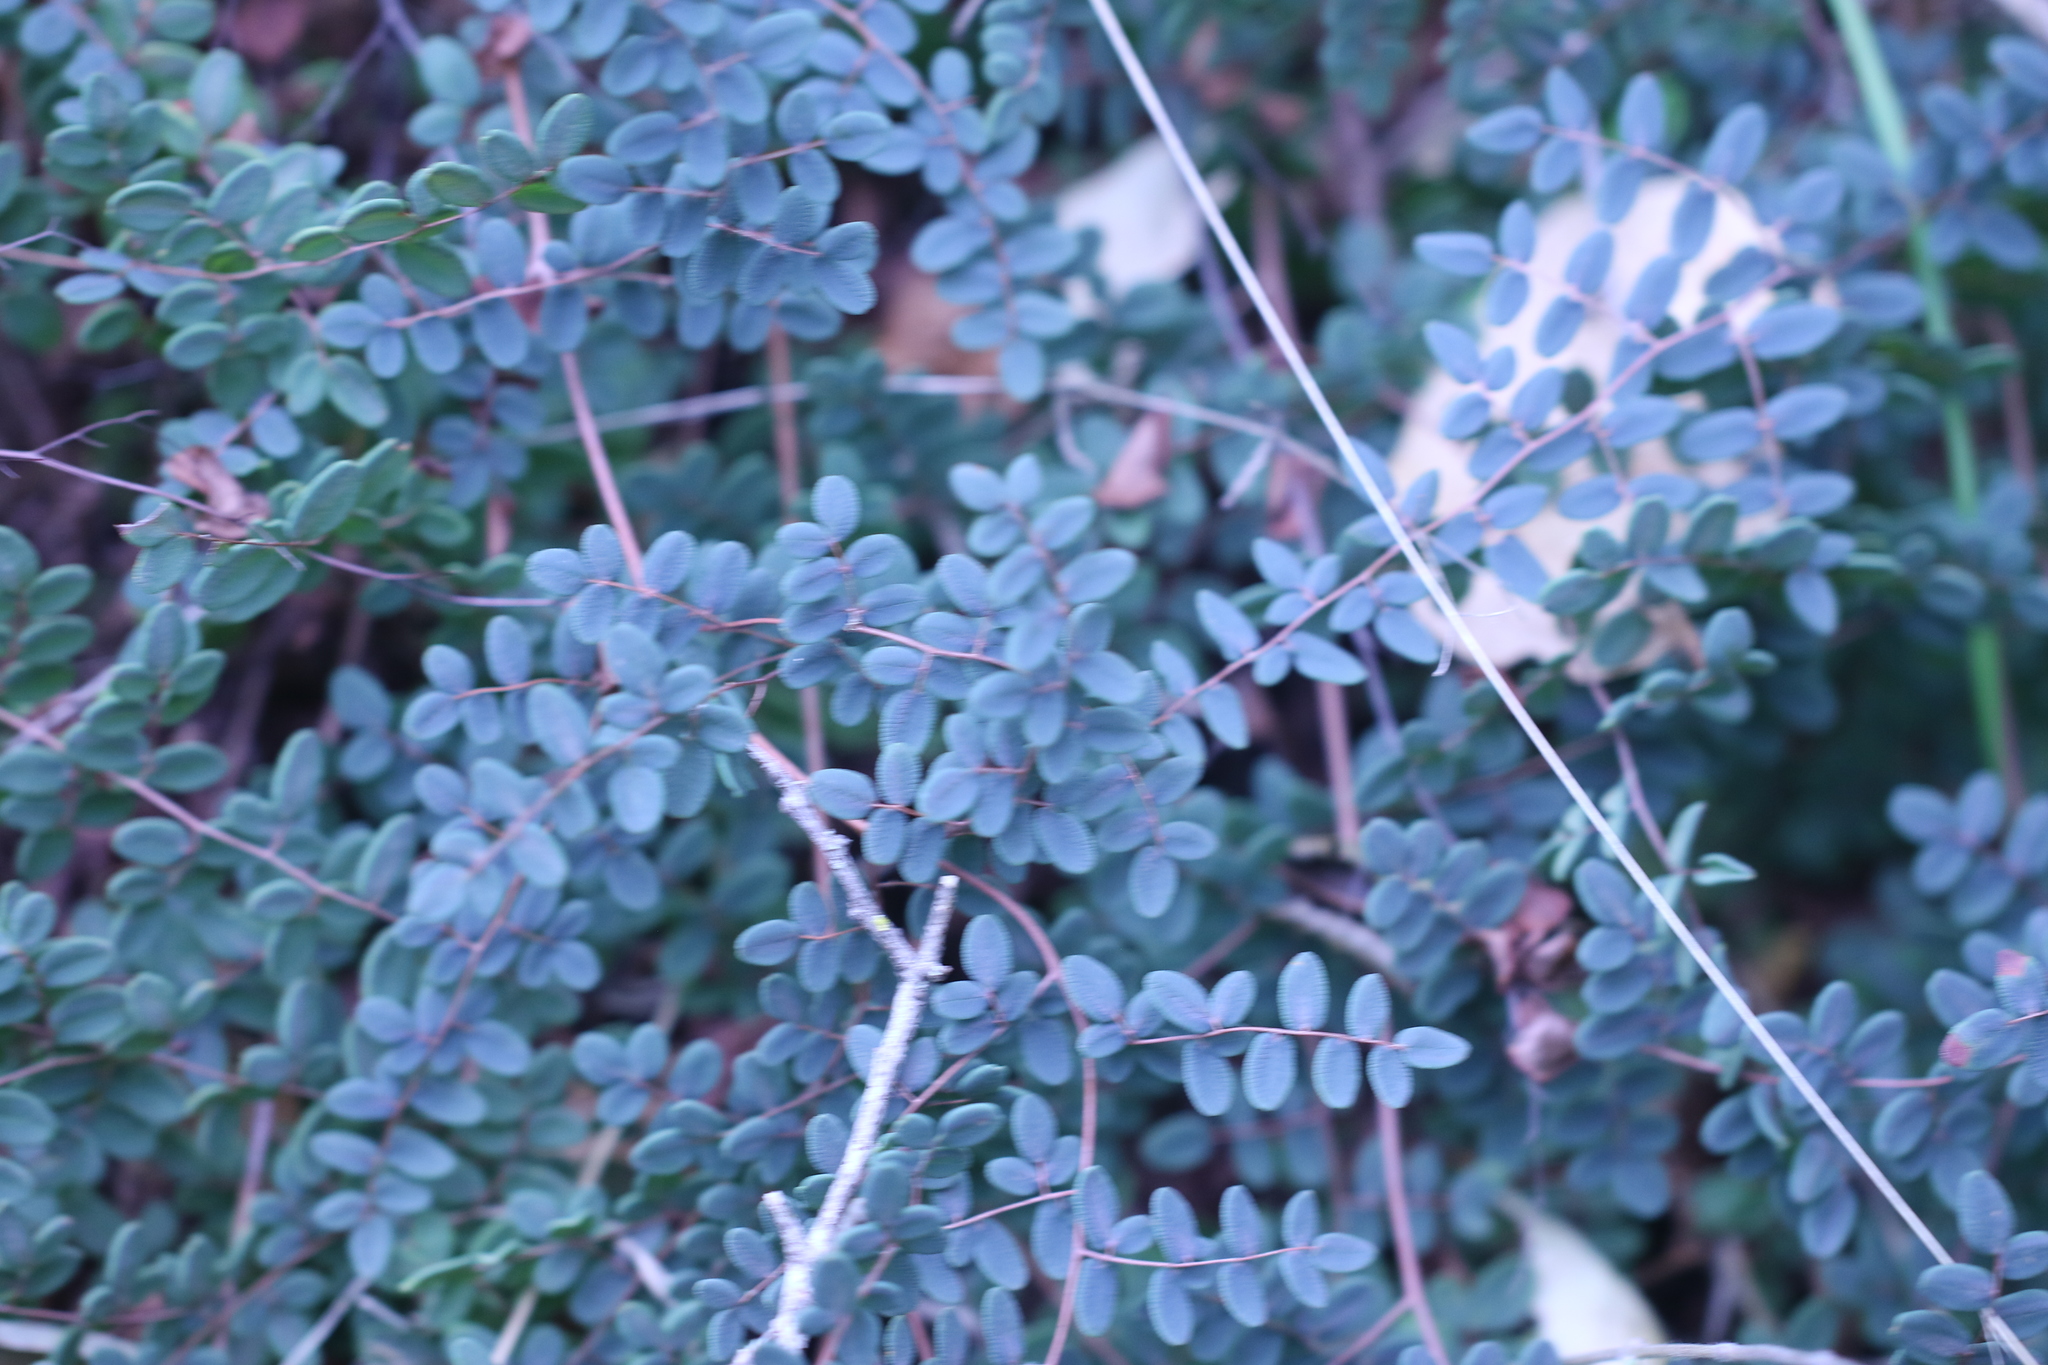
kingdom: Plantae
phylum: Tracheophyta
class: Polypodiopsida
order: Polypodiales
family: Pteridaceae
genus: Pellaea
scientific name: Pellaea andromedifolia
